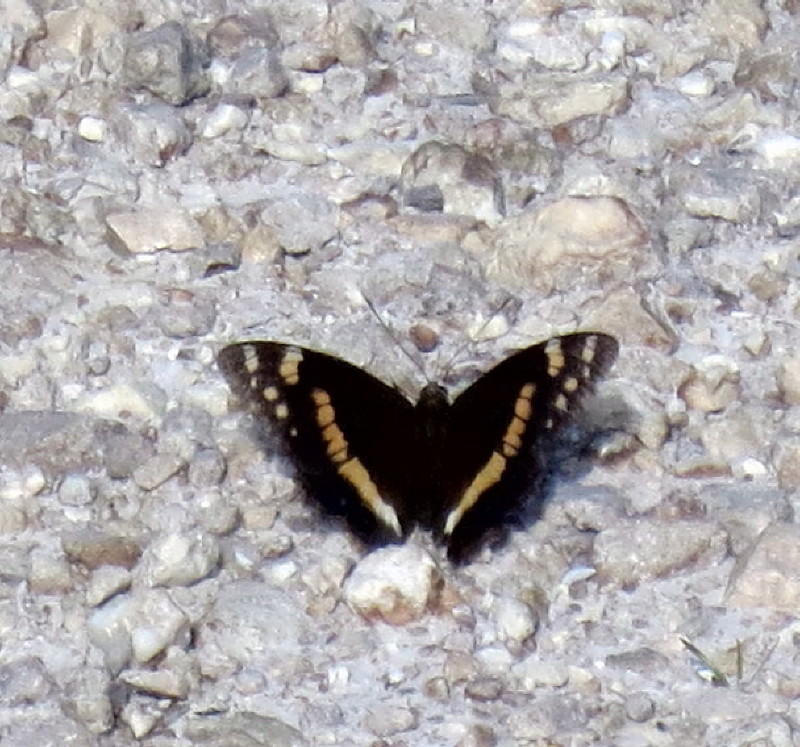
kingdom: Animalia
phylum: Arthropoda
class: Insecta
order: Lepidoptera
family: Nymphalidae
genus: Meneris
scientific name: Meneris Aeropetes tulbaghia
